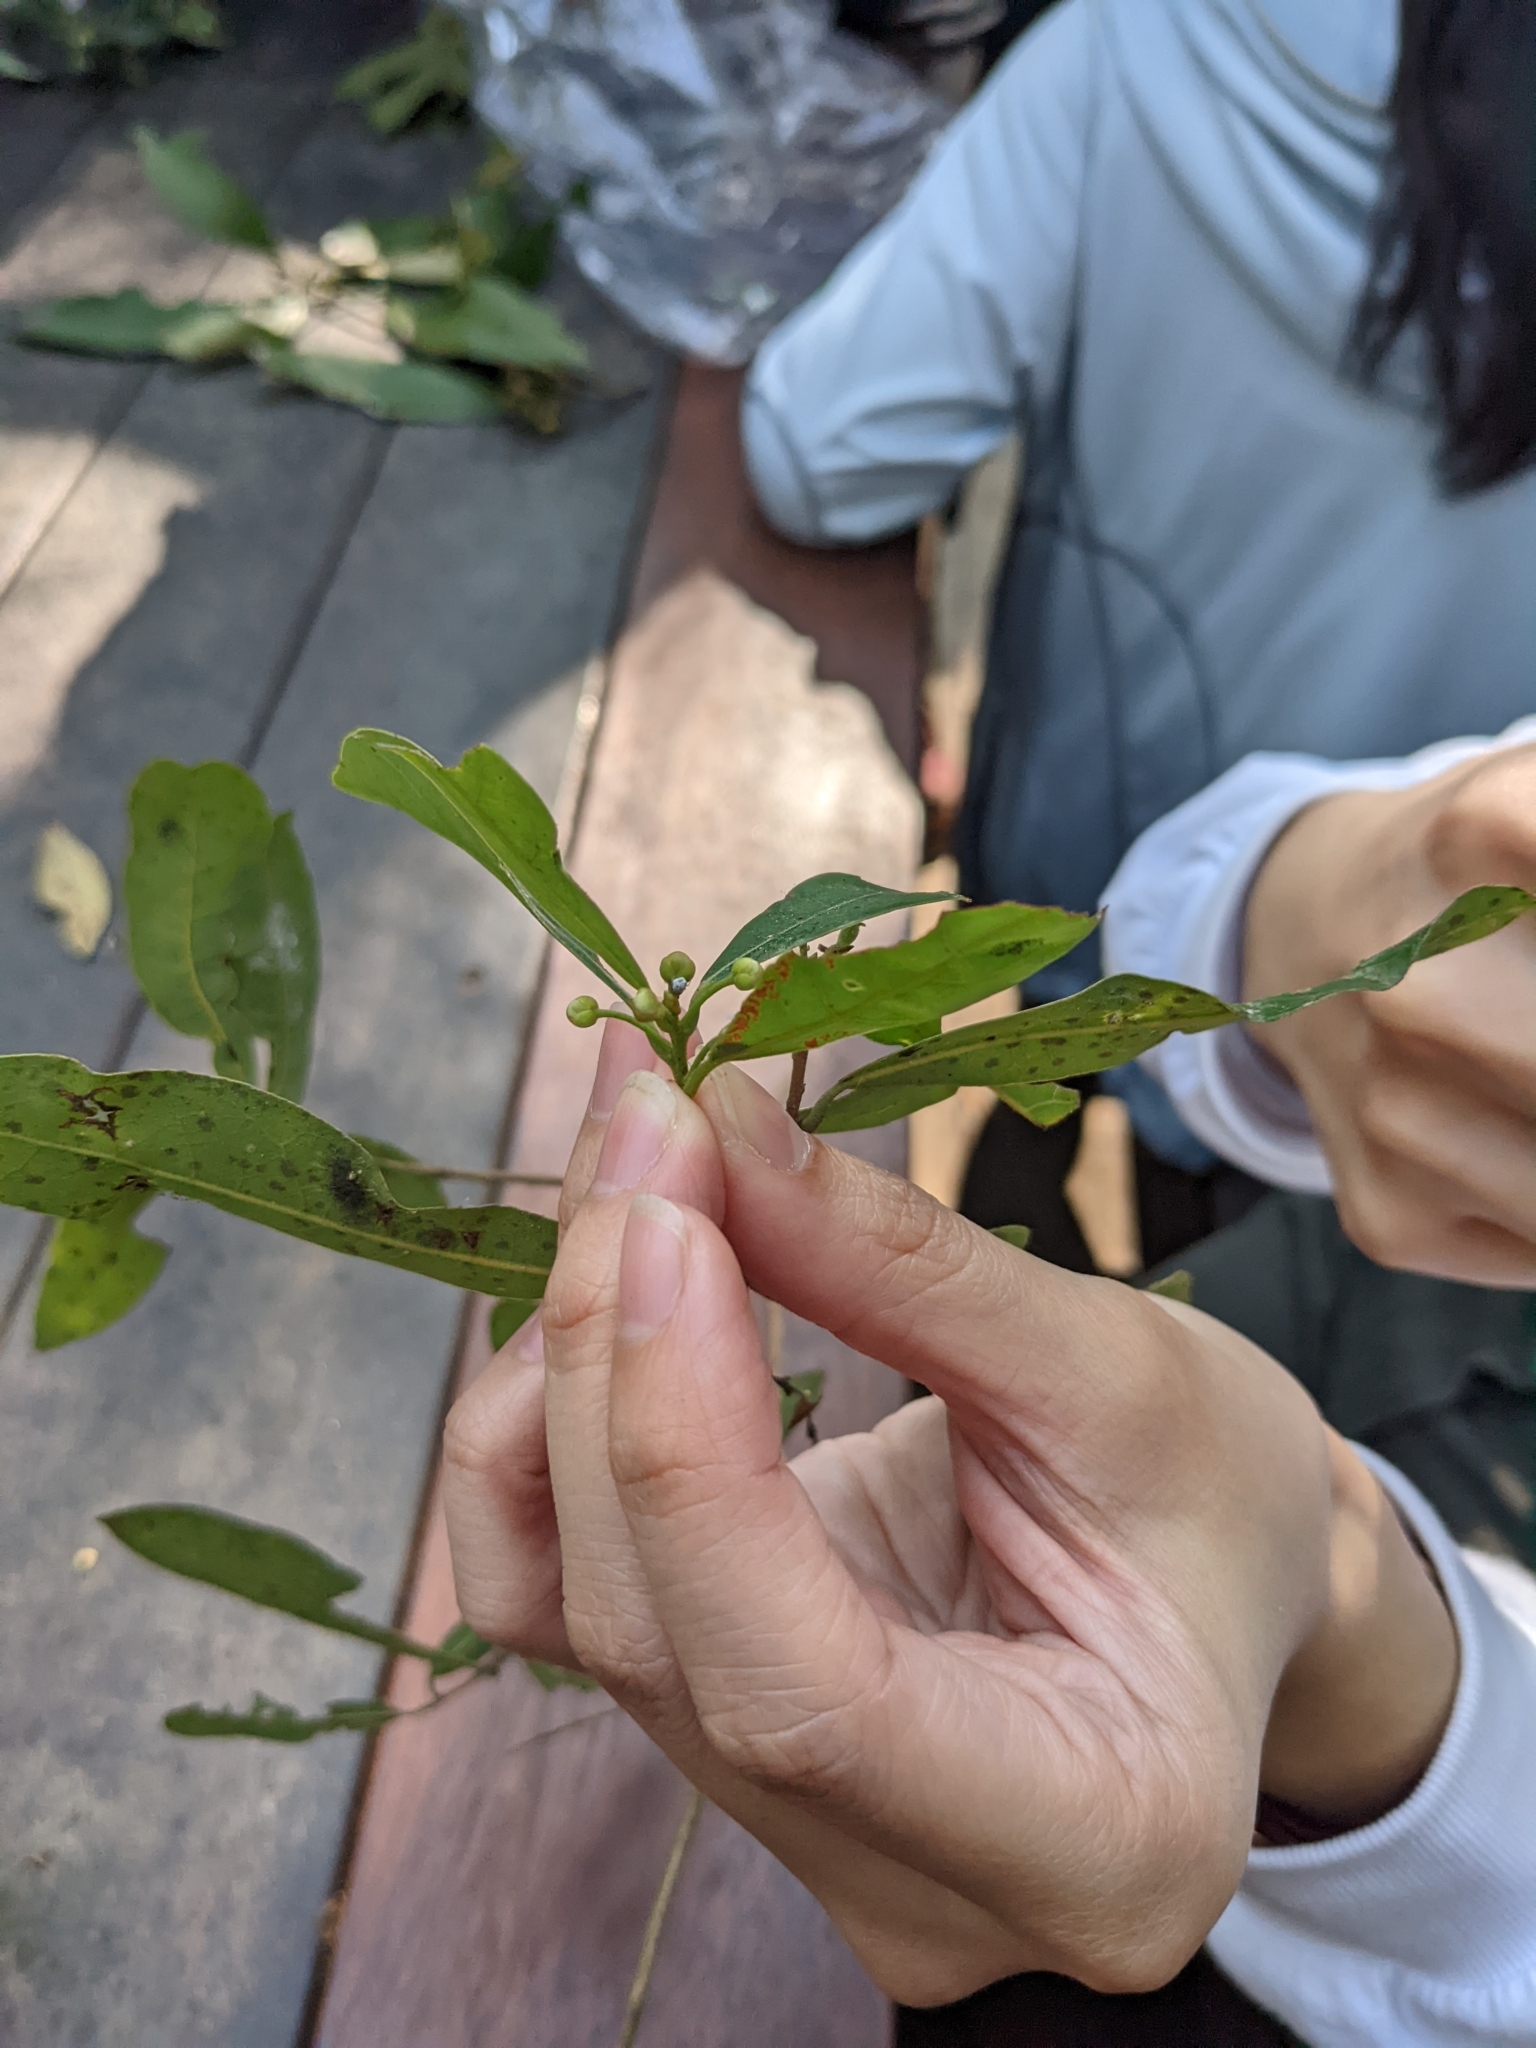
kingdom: Plantae
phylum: Tracheophyta
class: Magnoliopsida
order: Laurales
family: Lauraceae
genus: Litsea
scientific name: Litsea hypophaea
